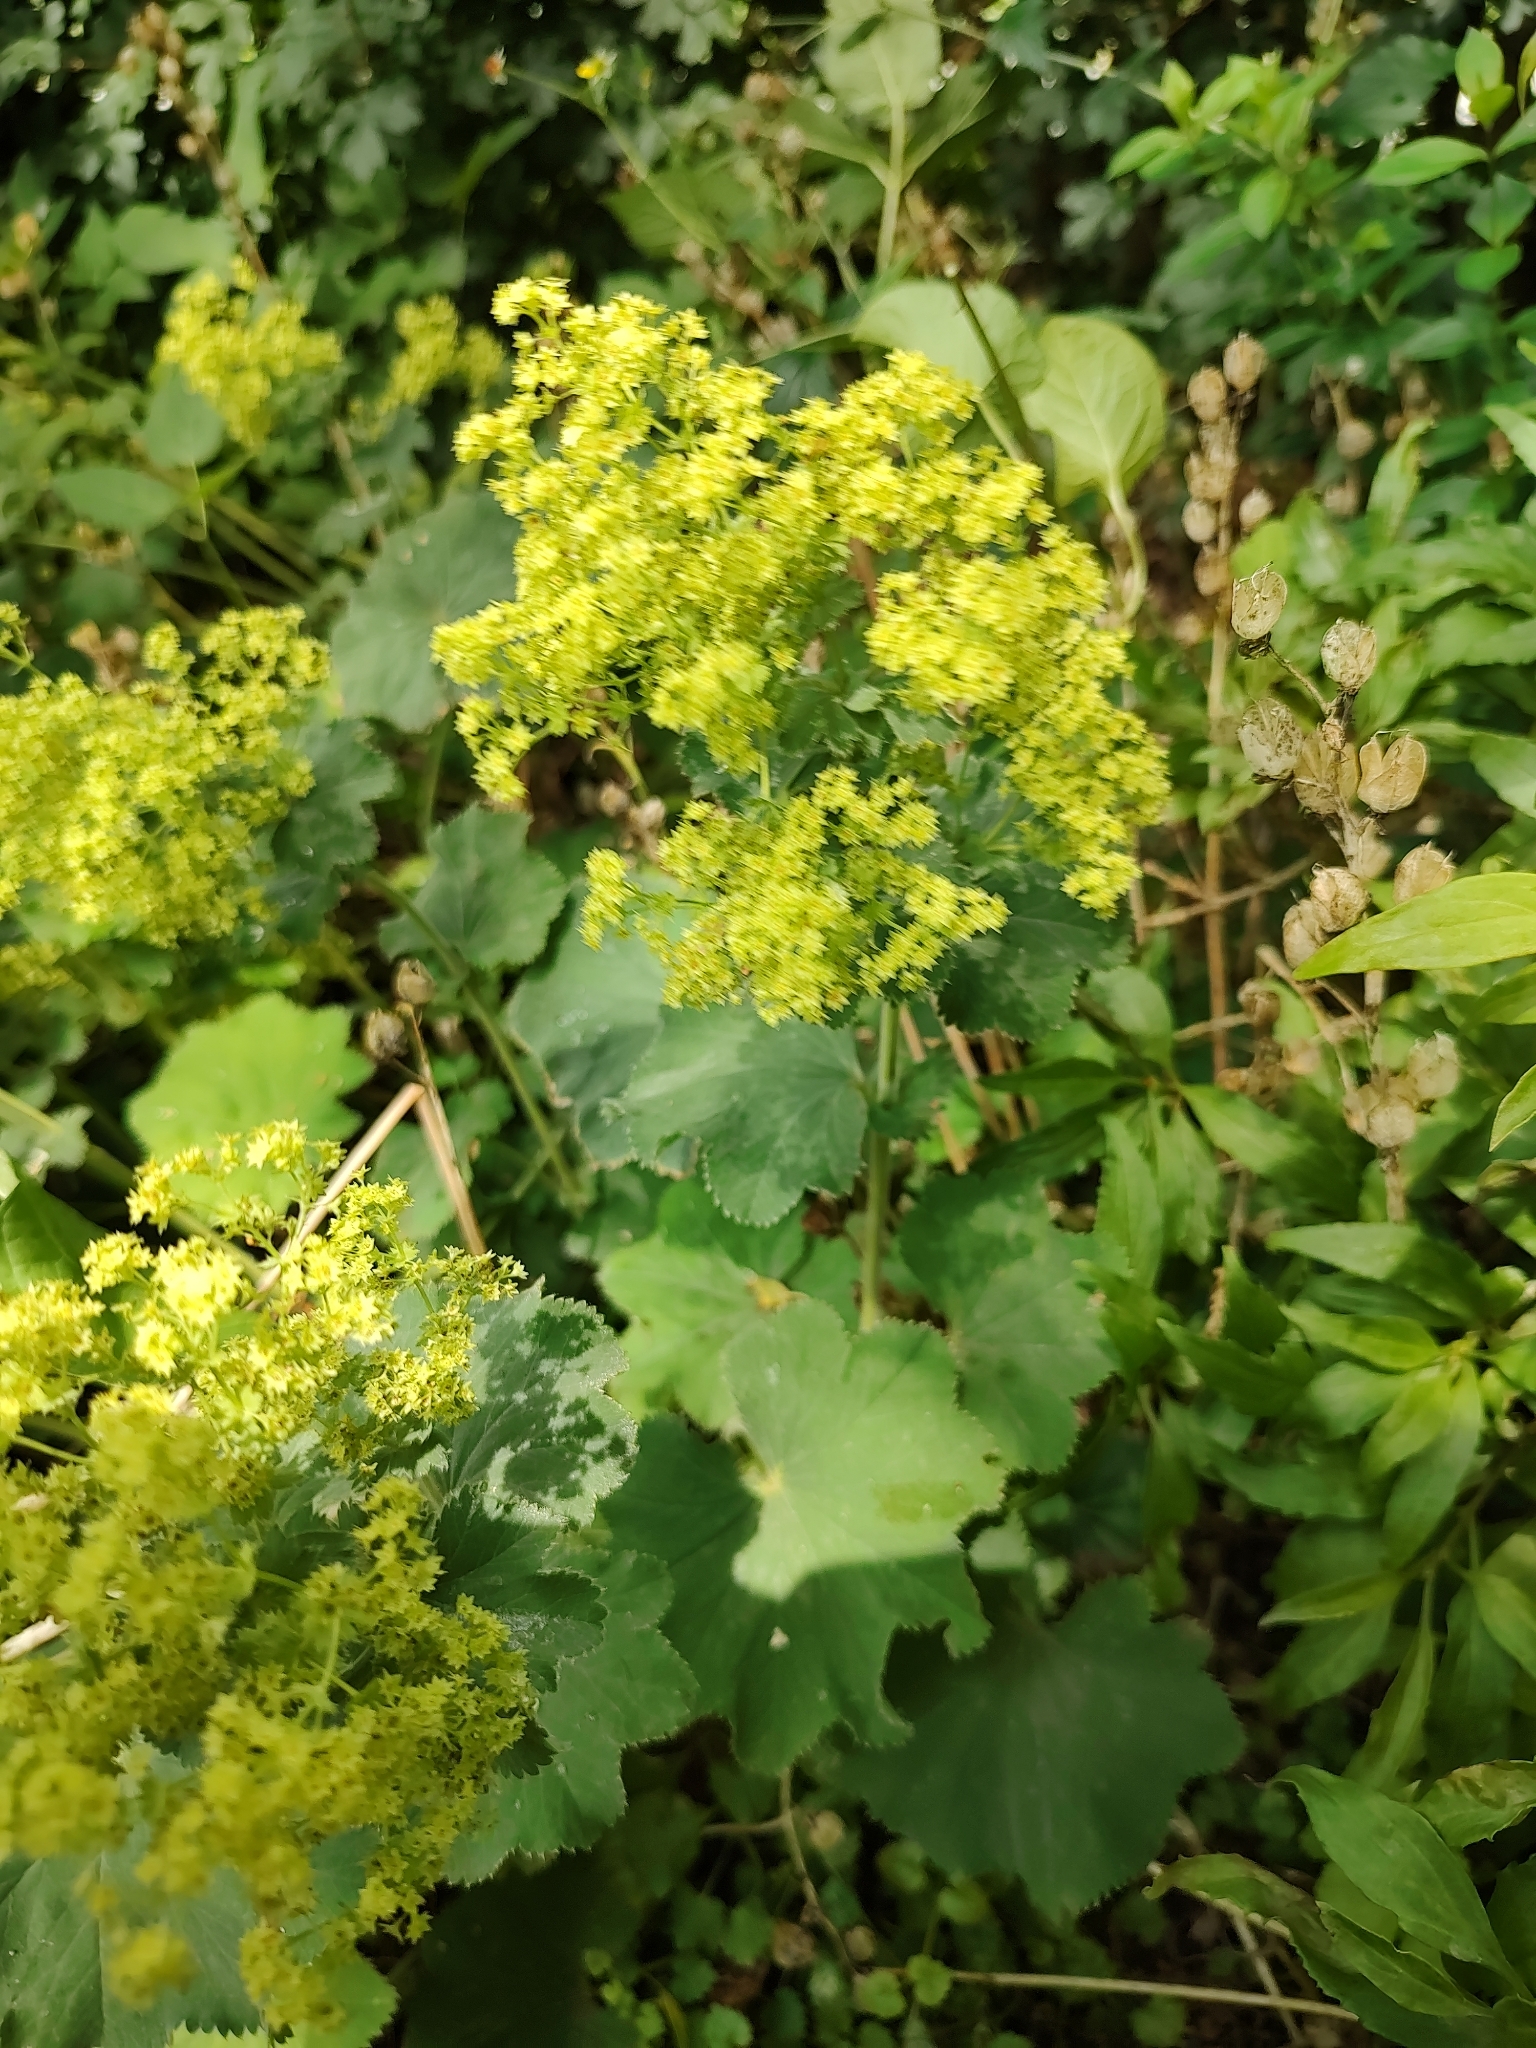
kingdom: Plantae
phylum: Tracheophyta
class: Magnoliopsida
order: Rosales
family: Rosaceae
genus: Alchemilla
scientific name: Alchemilla mollis
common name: Lady's-mantle
